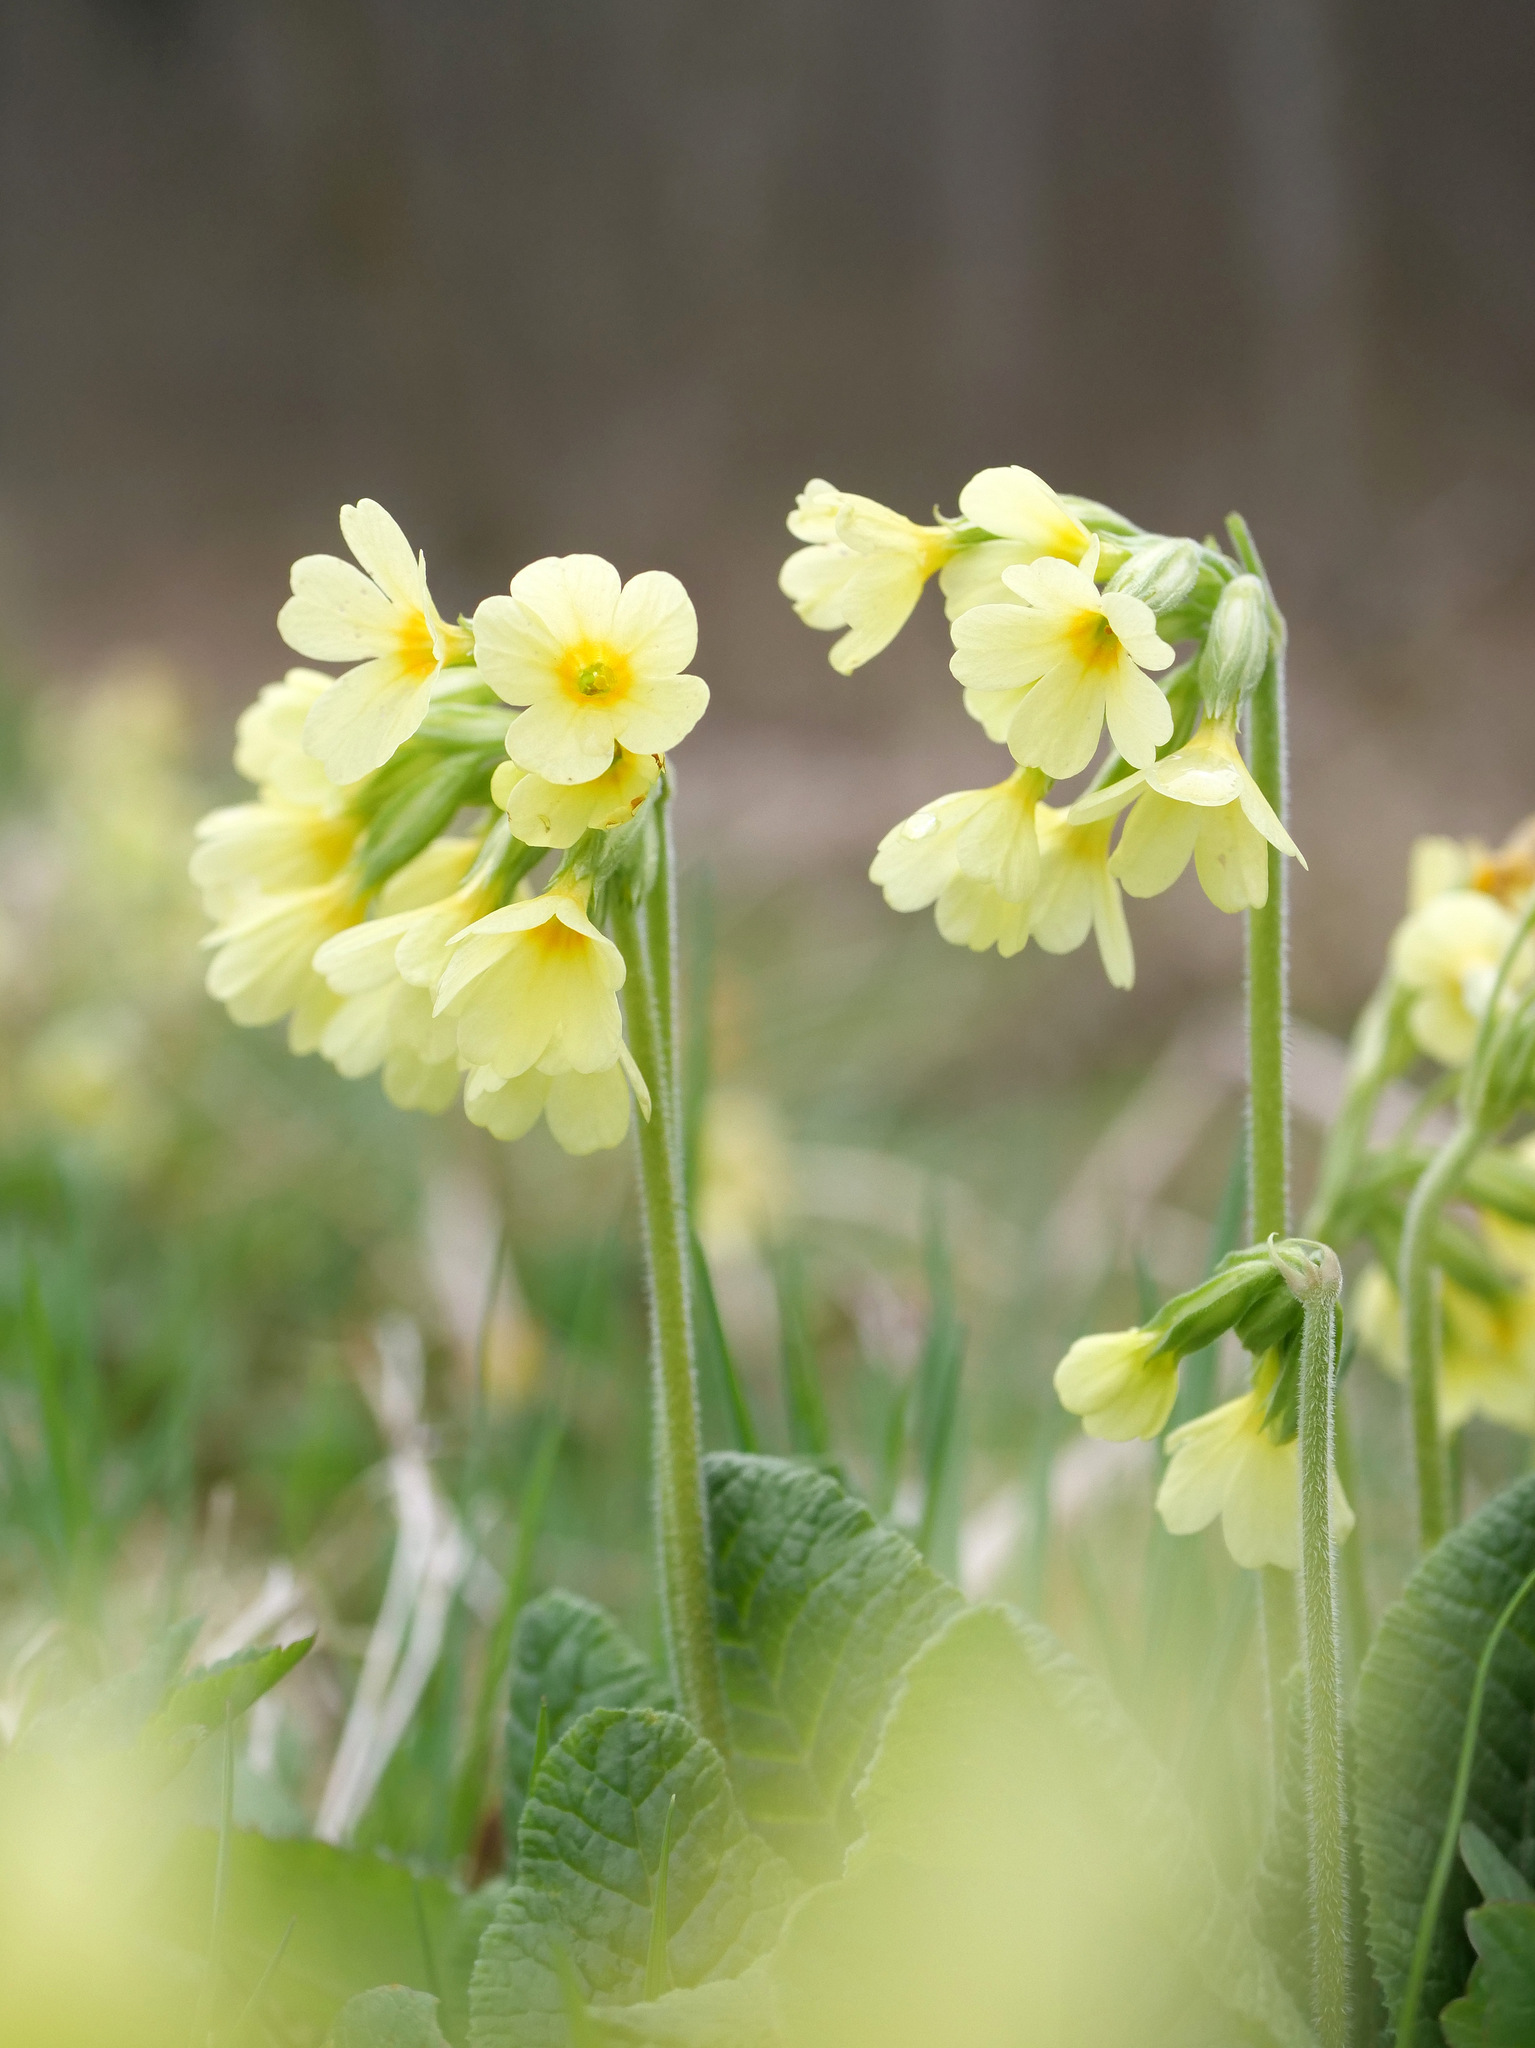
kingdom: Plantae
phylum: Tracheophyta
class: Magnoliopsida
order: Ericales
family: Primulaceae
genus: Primula
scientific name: Primula elatior
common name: Oxlip
